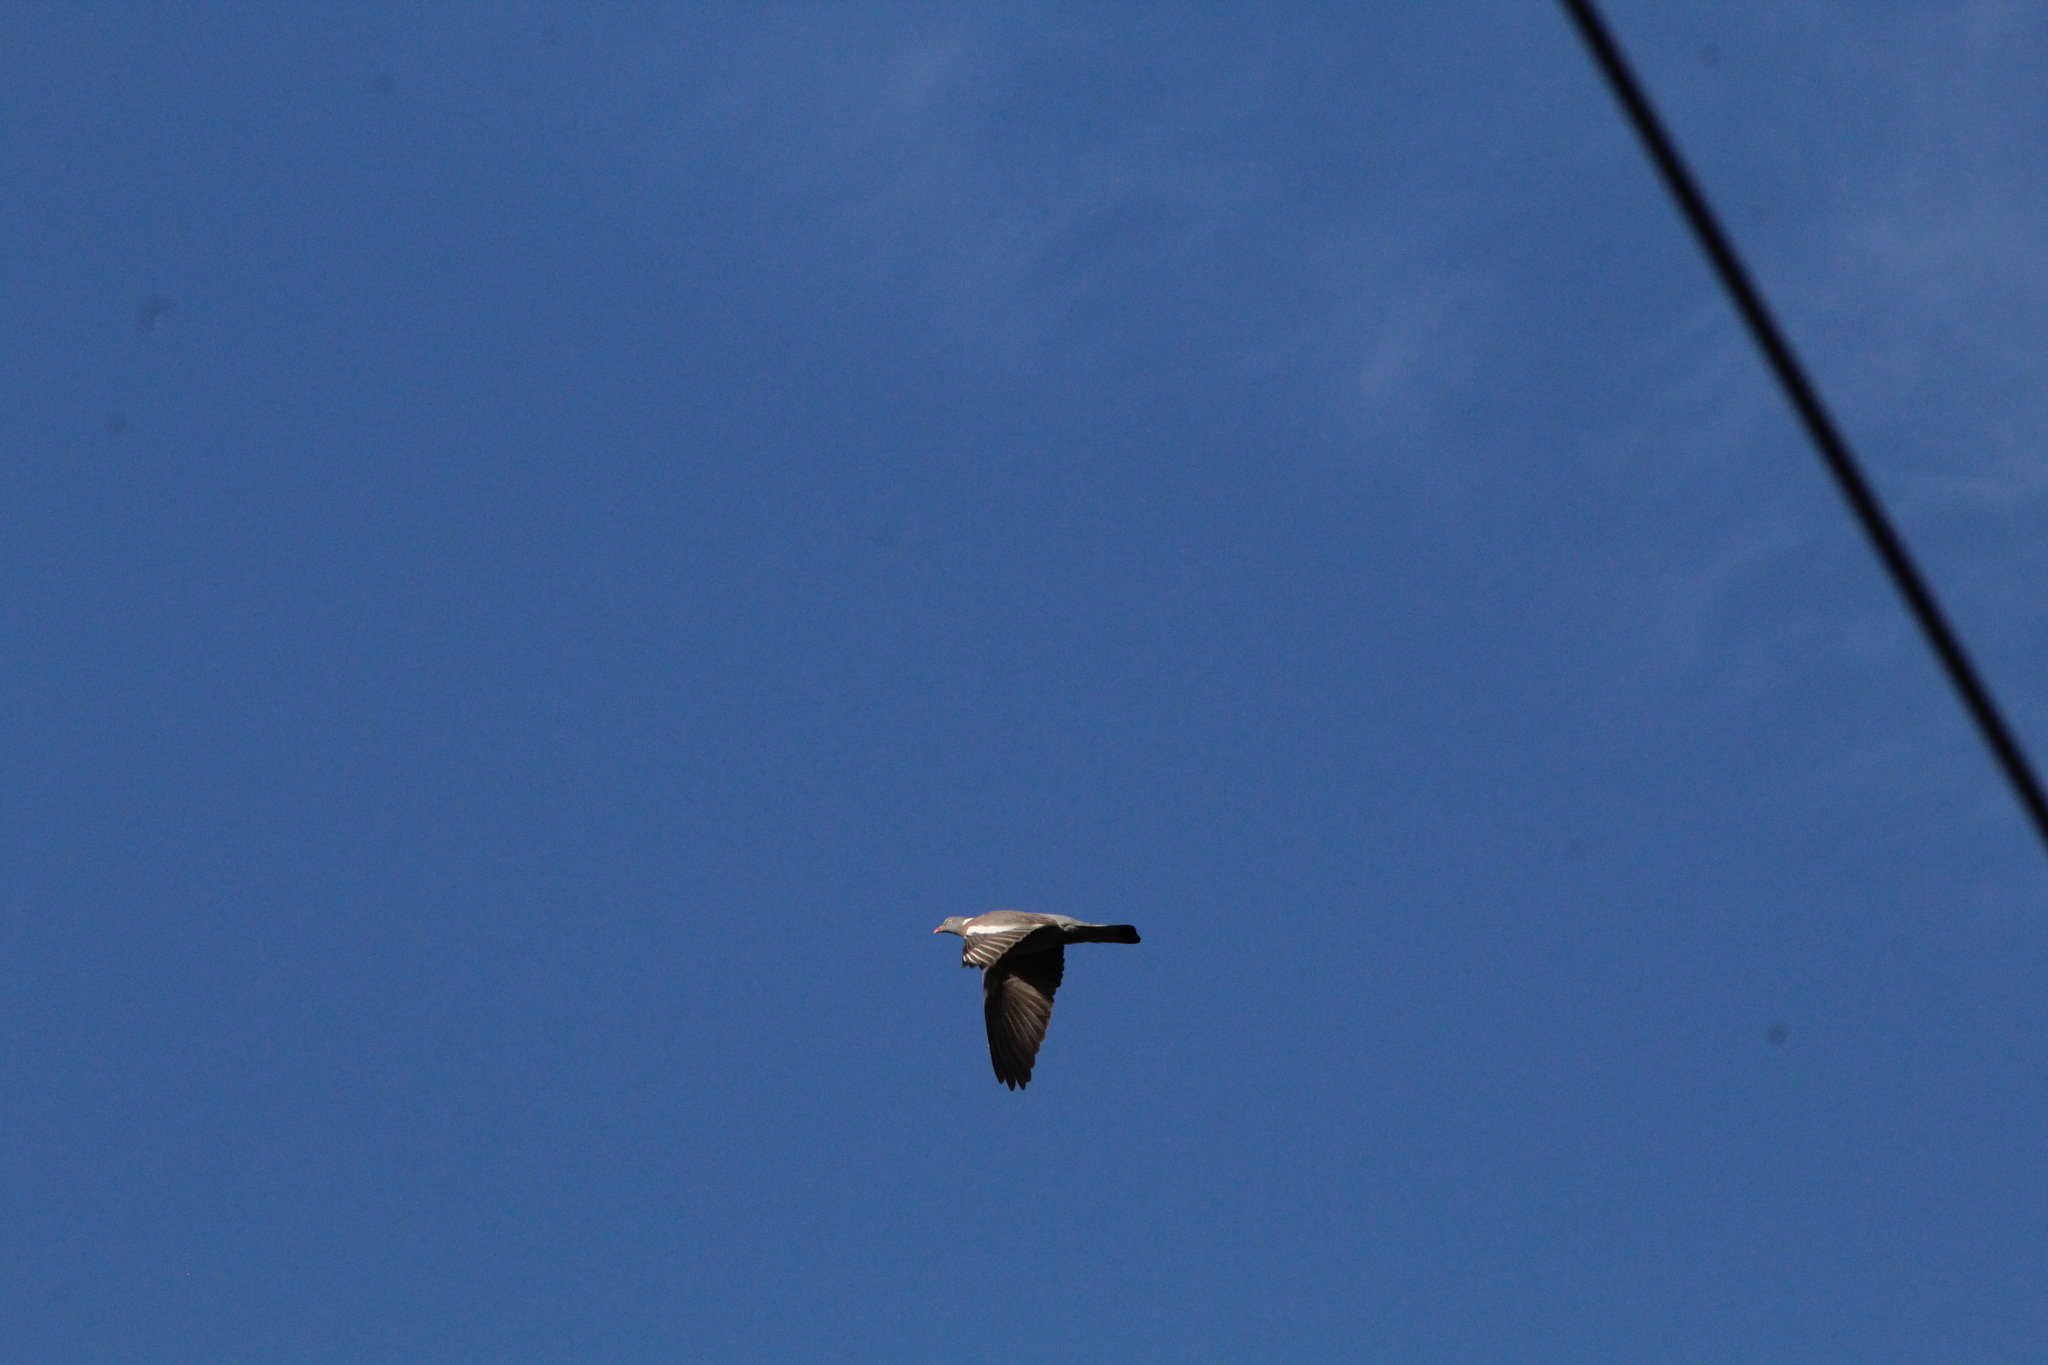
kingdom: Animalia
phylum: Chordata
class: Aves
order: Columbiformes
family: Columbidae
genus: Columba
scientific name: Columba palumbus
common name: Common wood pigeon
